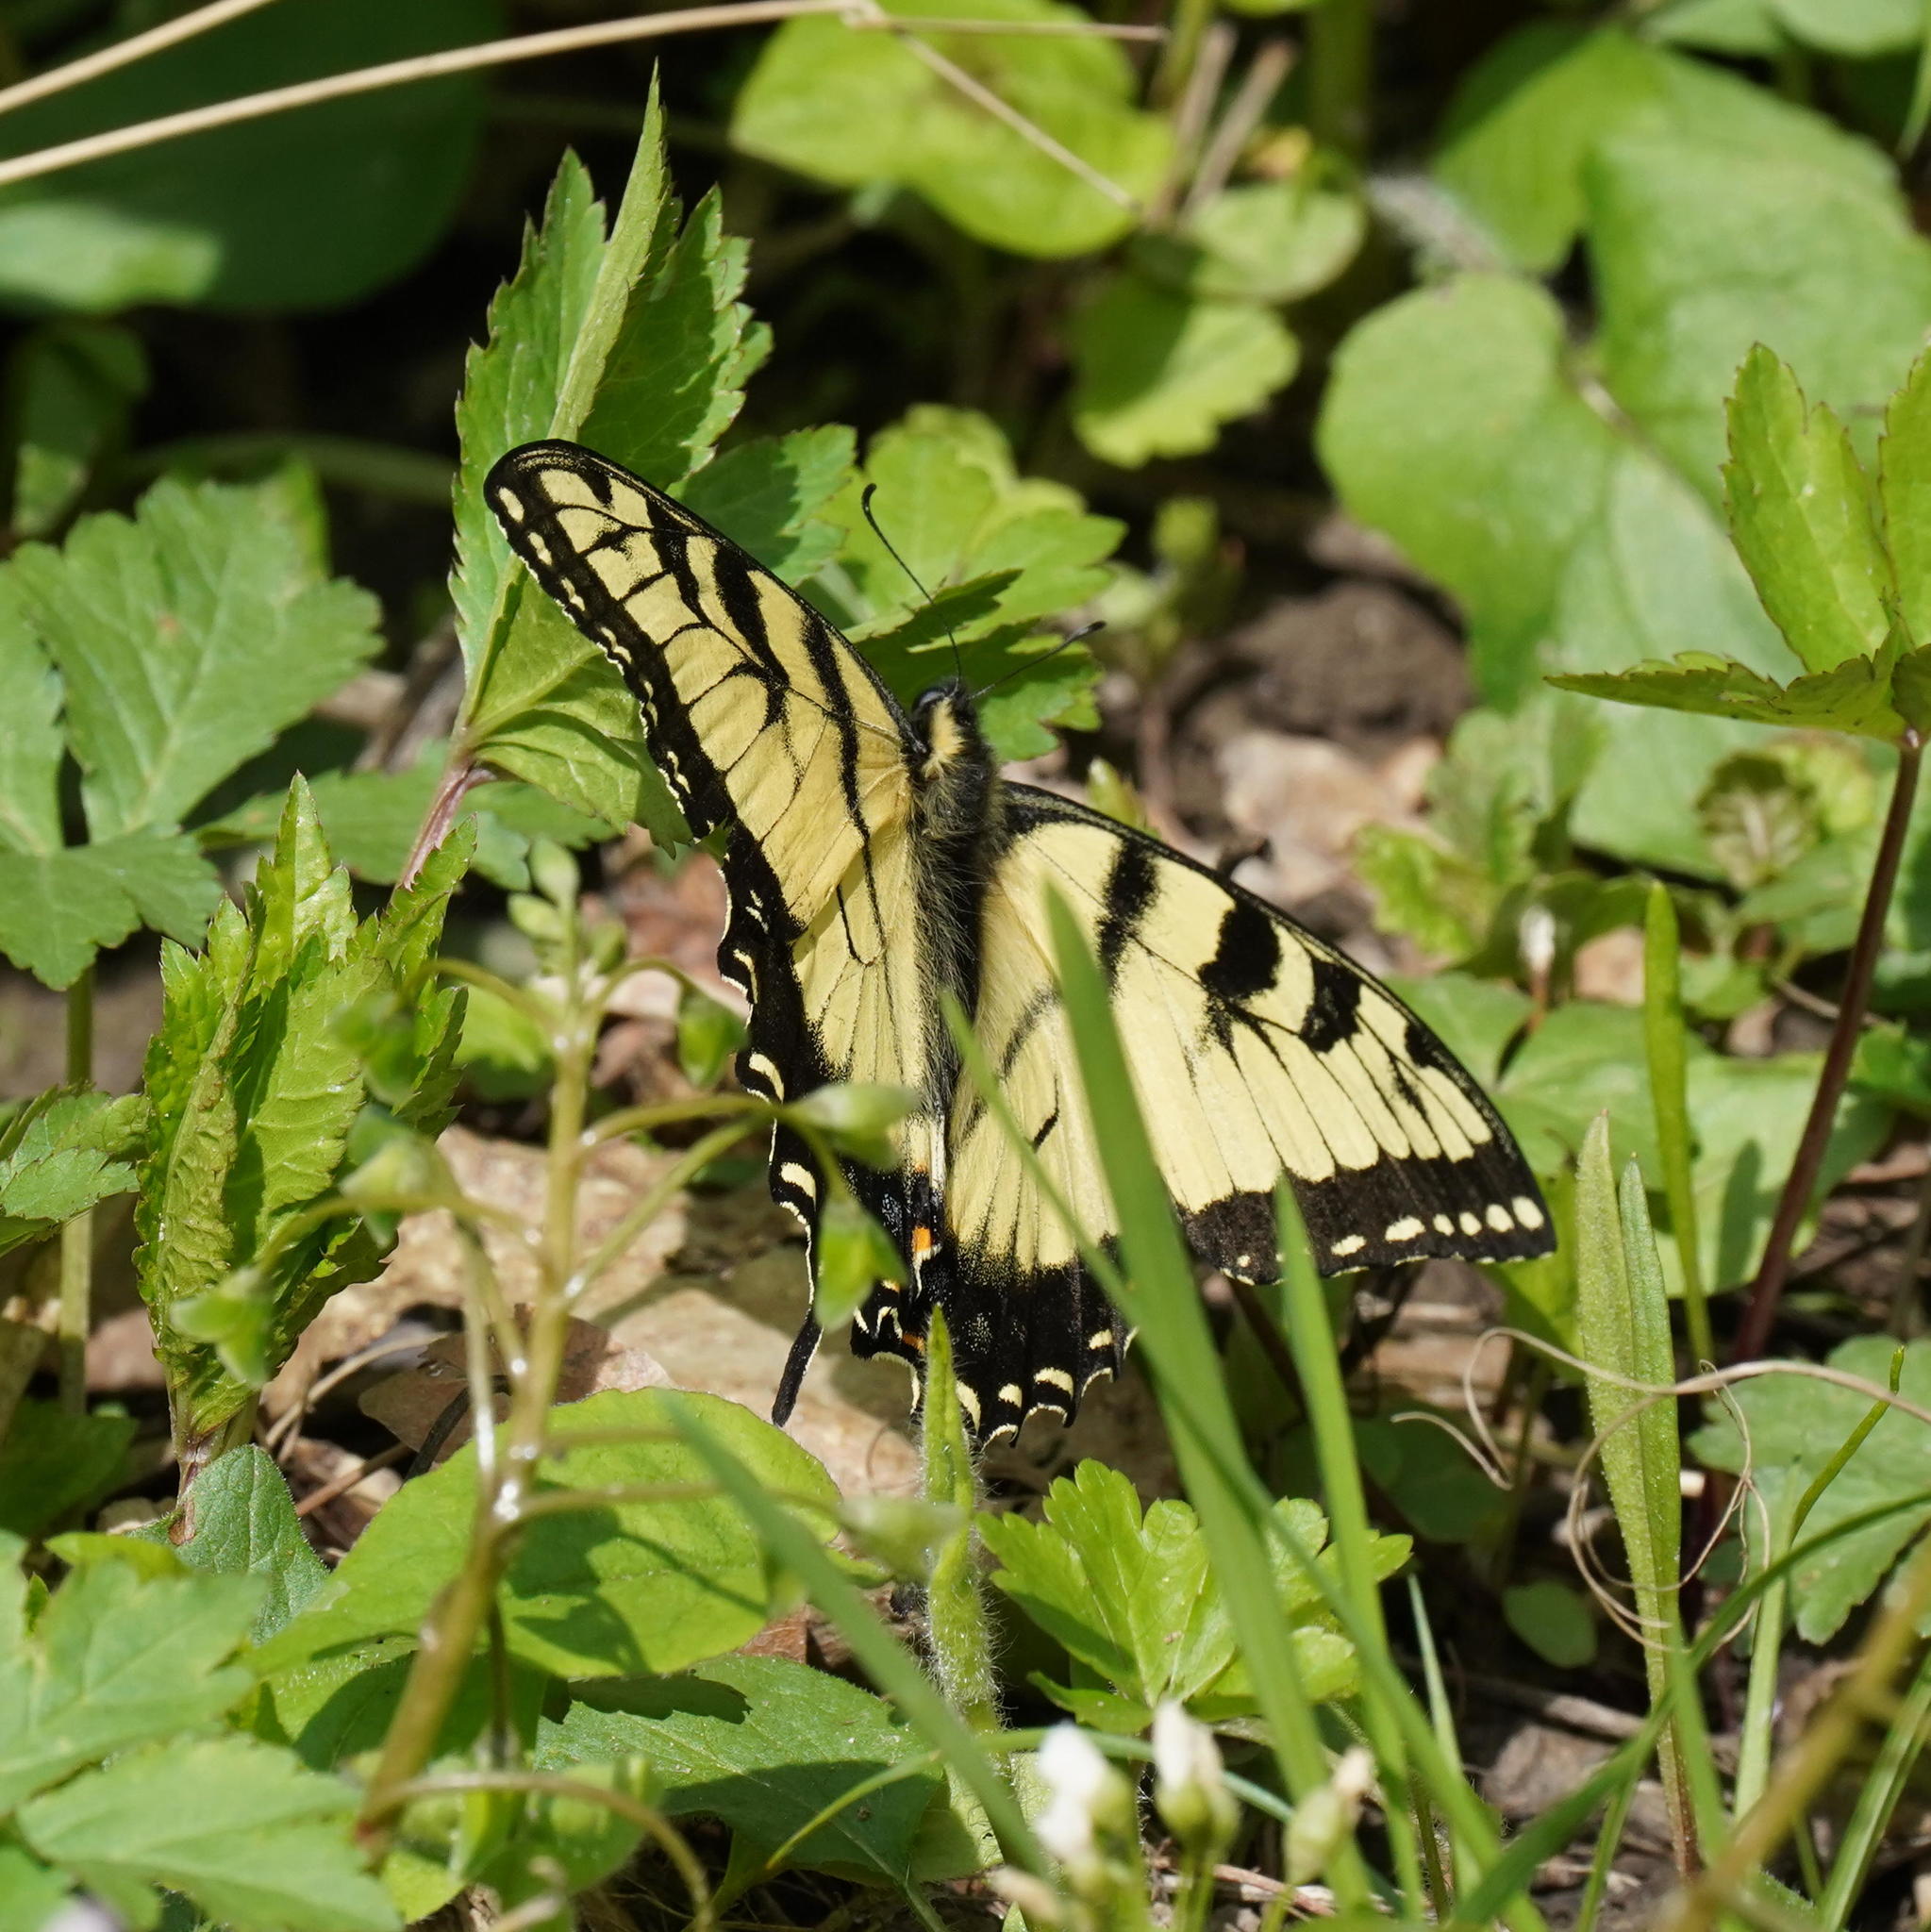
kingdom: Animalia
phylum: Arthropoda
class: Insecta
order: Lepidoptera
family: Papilionidae
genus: Papilio
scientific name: Papilio glaucus
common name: Tiger swallowtail
